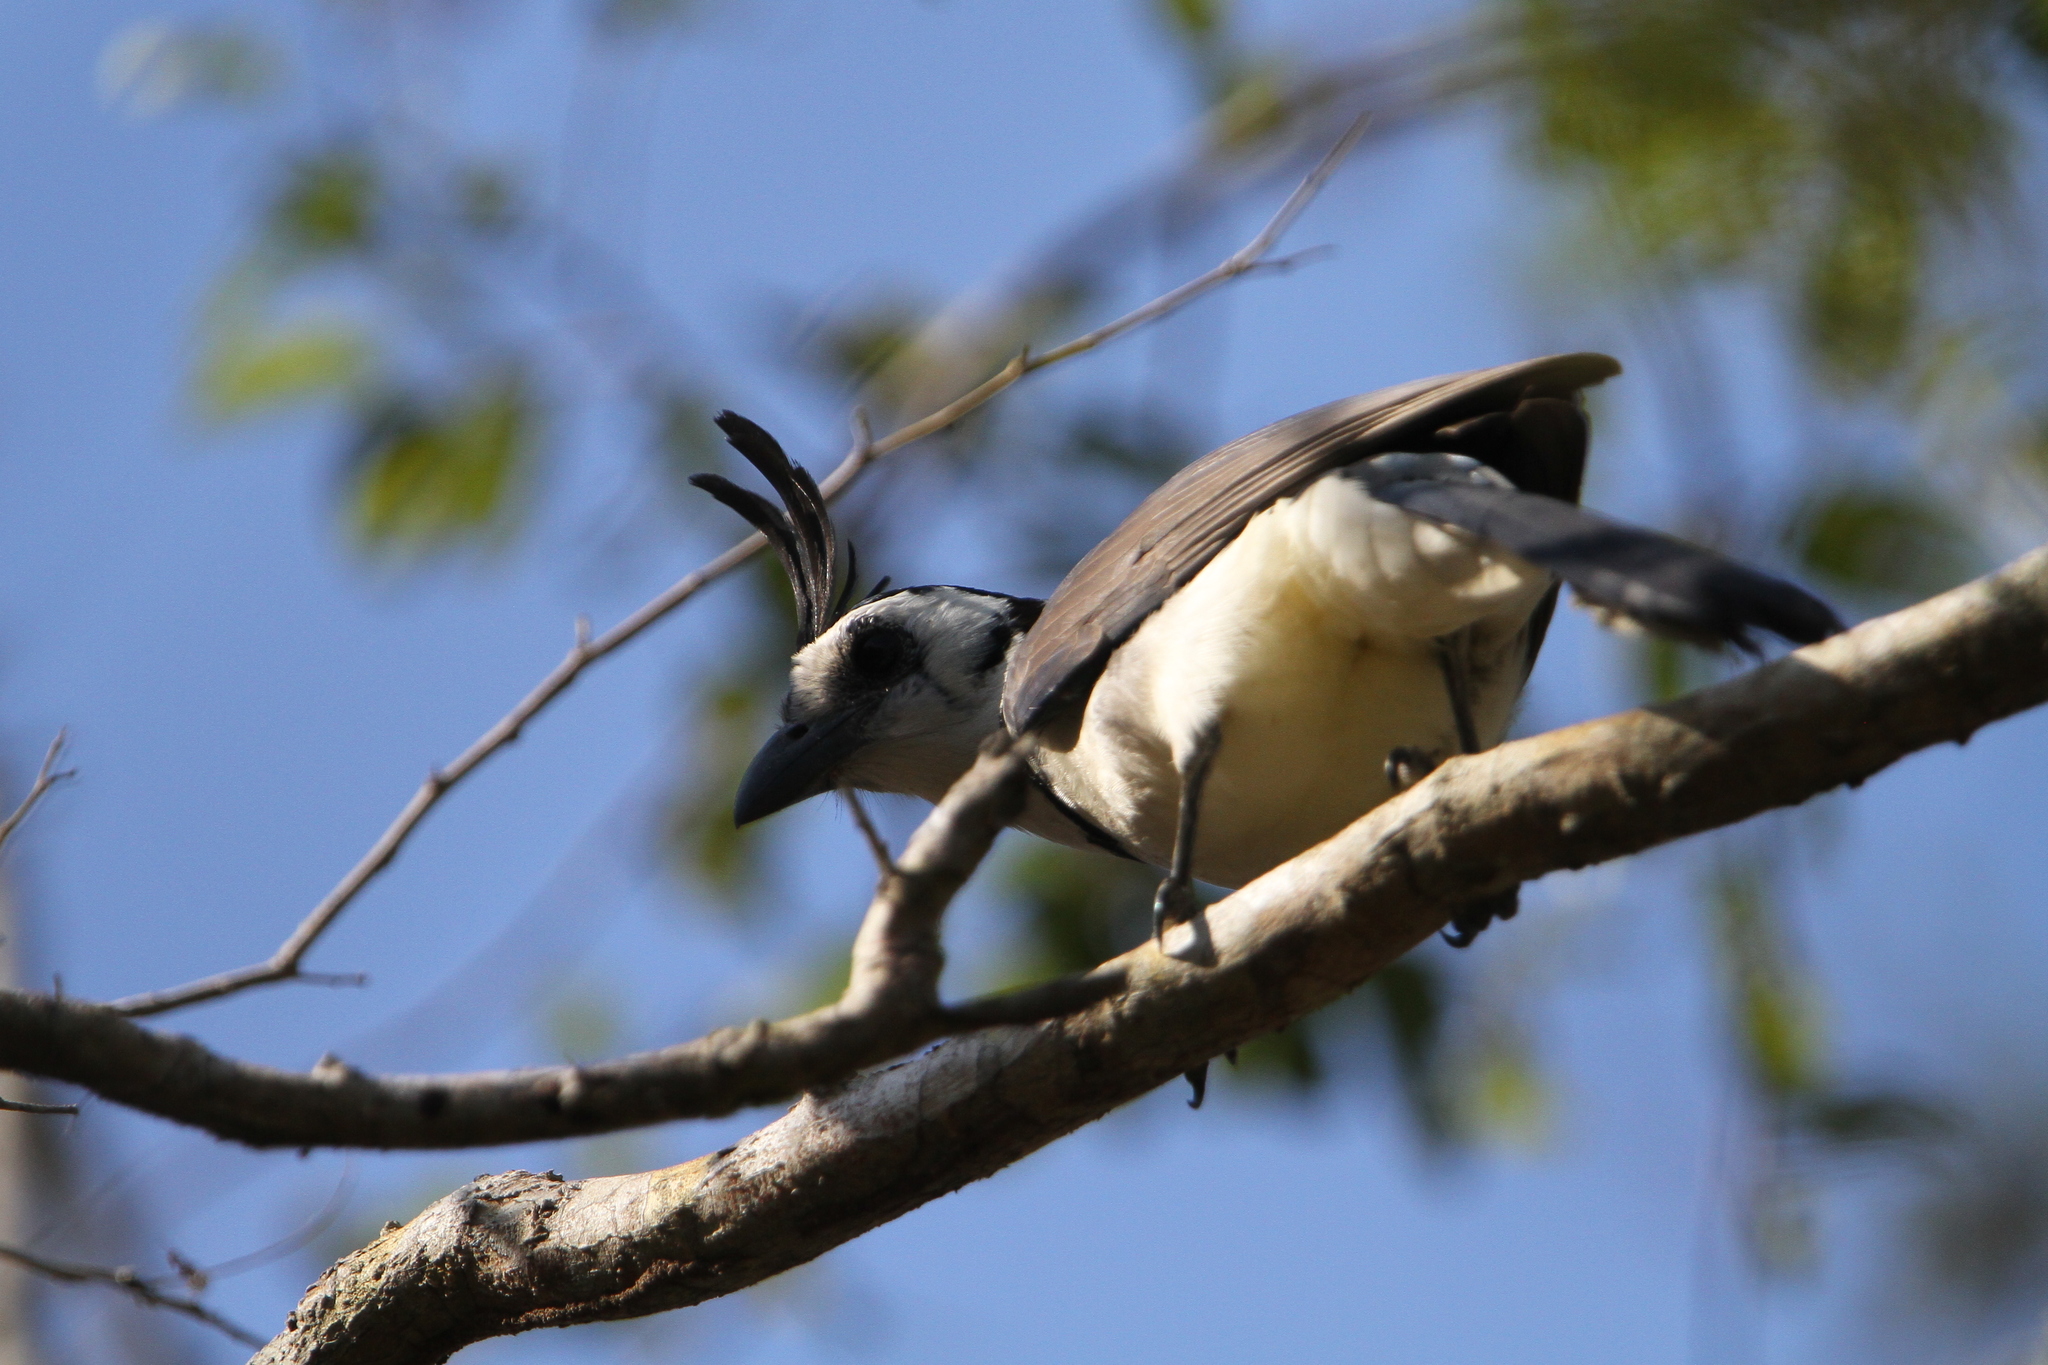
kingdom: Animalia
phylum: Chordata
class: Aves
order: Passeriformes
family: Corvidae
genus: Calocitta
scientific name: Calocitta formosa
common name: White-throated magpie-jay
